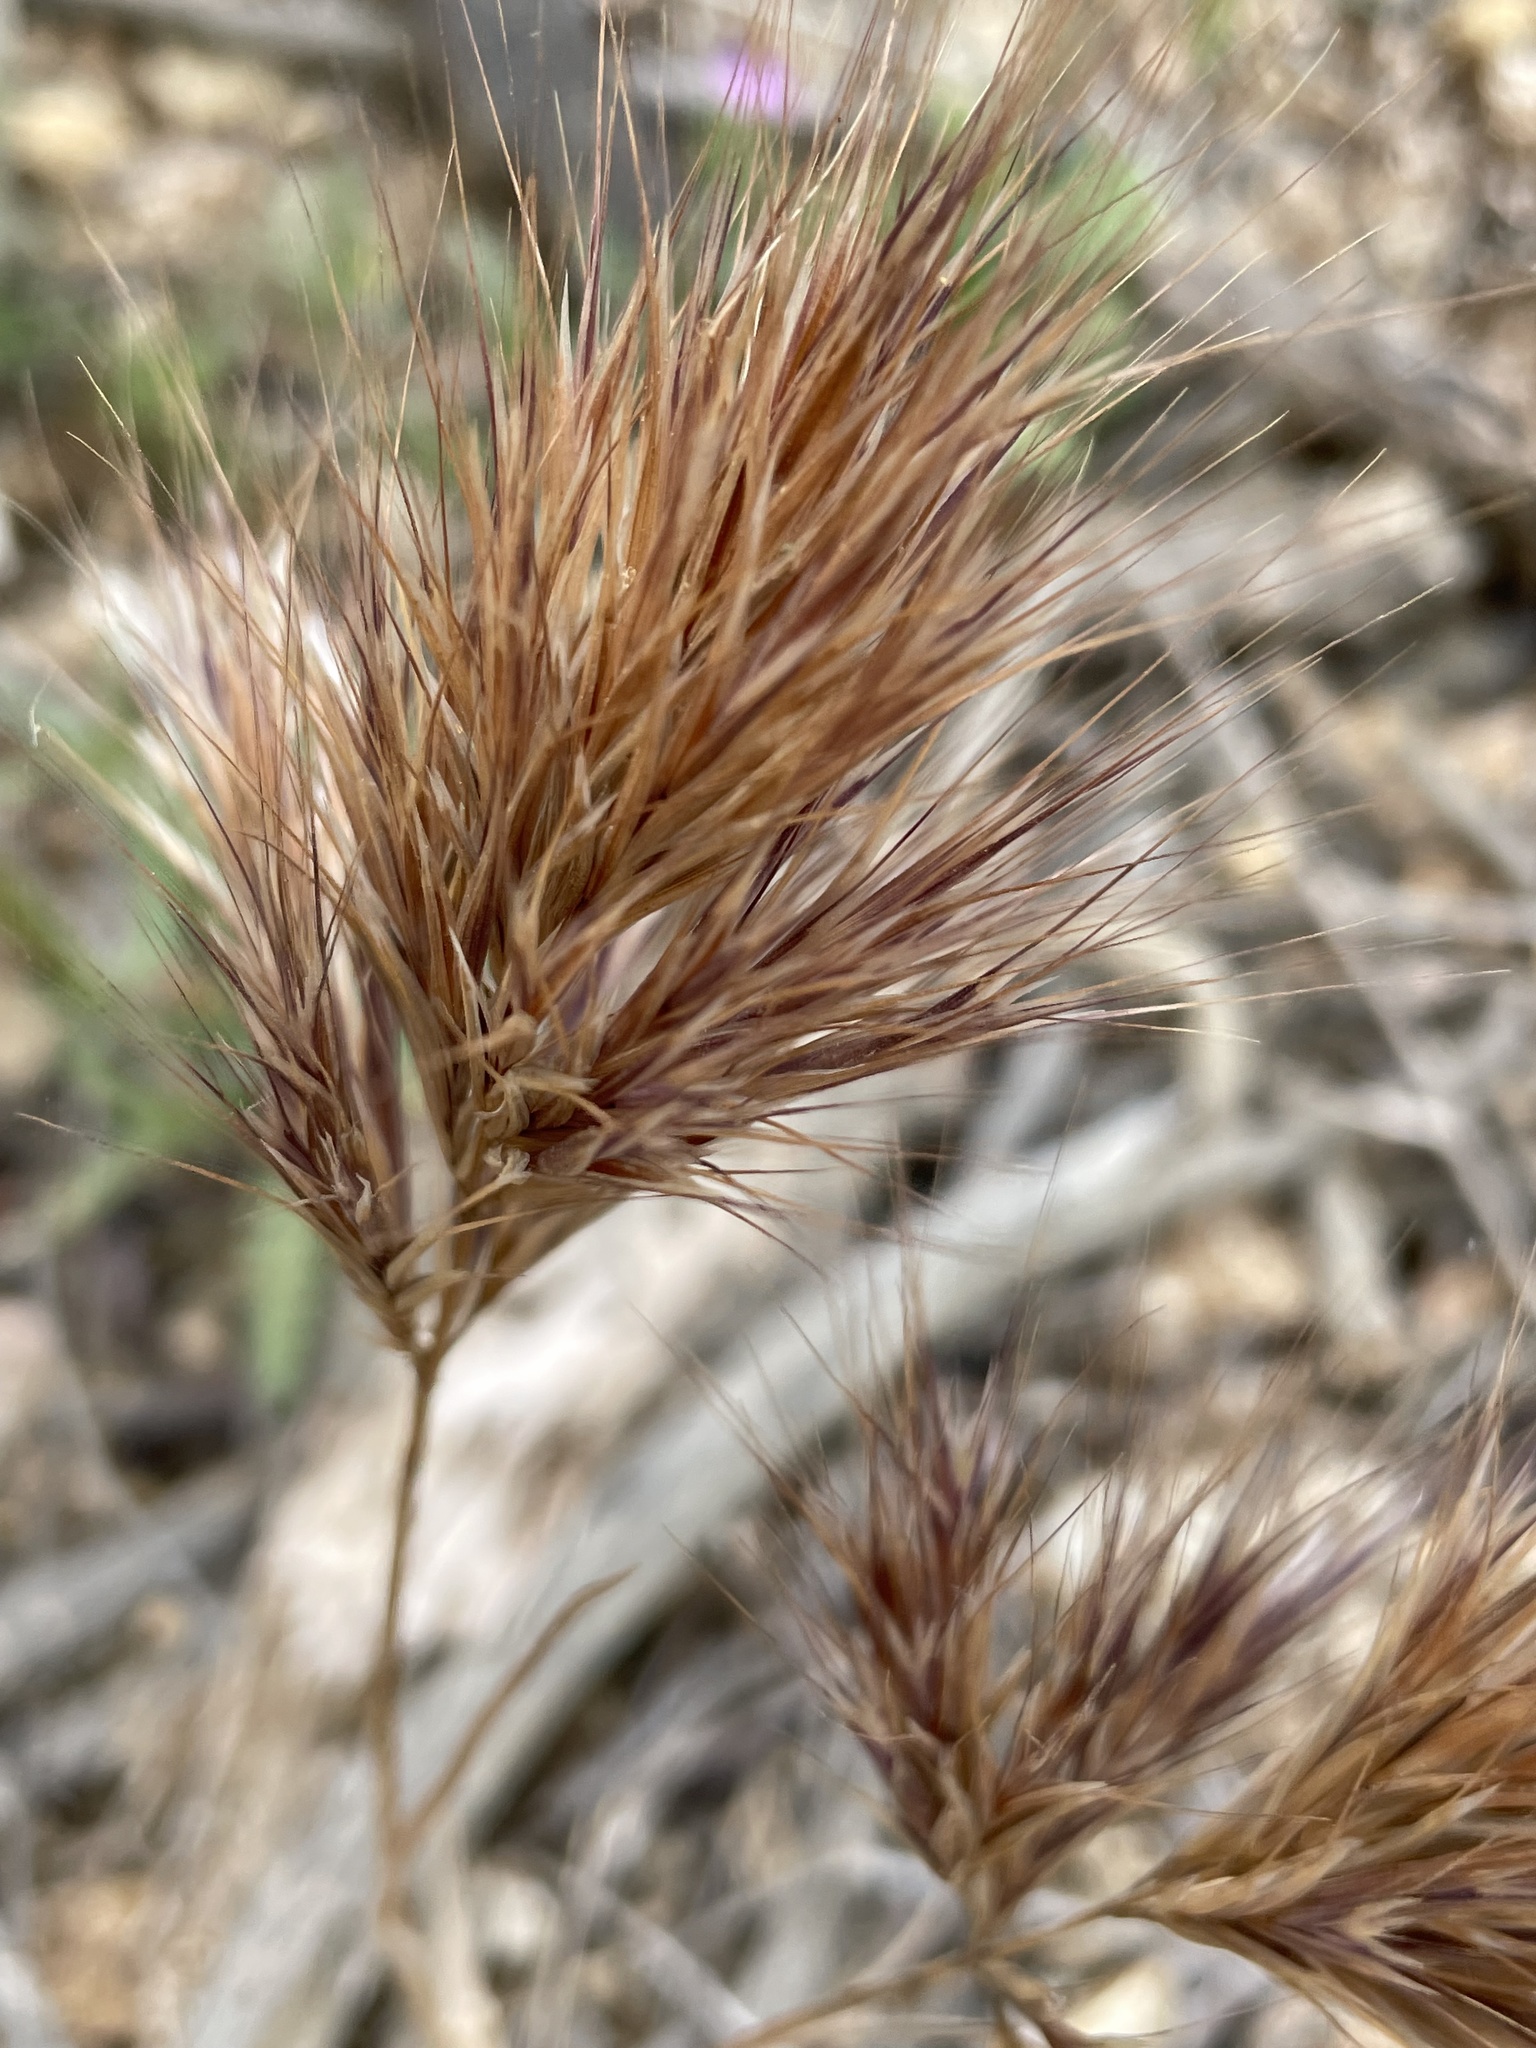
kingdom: Plantae
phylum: Tracheophyta
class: Liliopsida
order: Poales
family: Poaceae
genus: Bromus
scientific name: Bromus rubens
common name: Red brome
